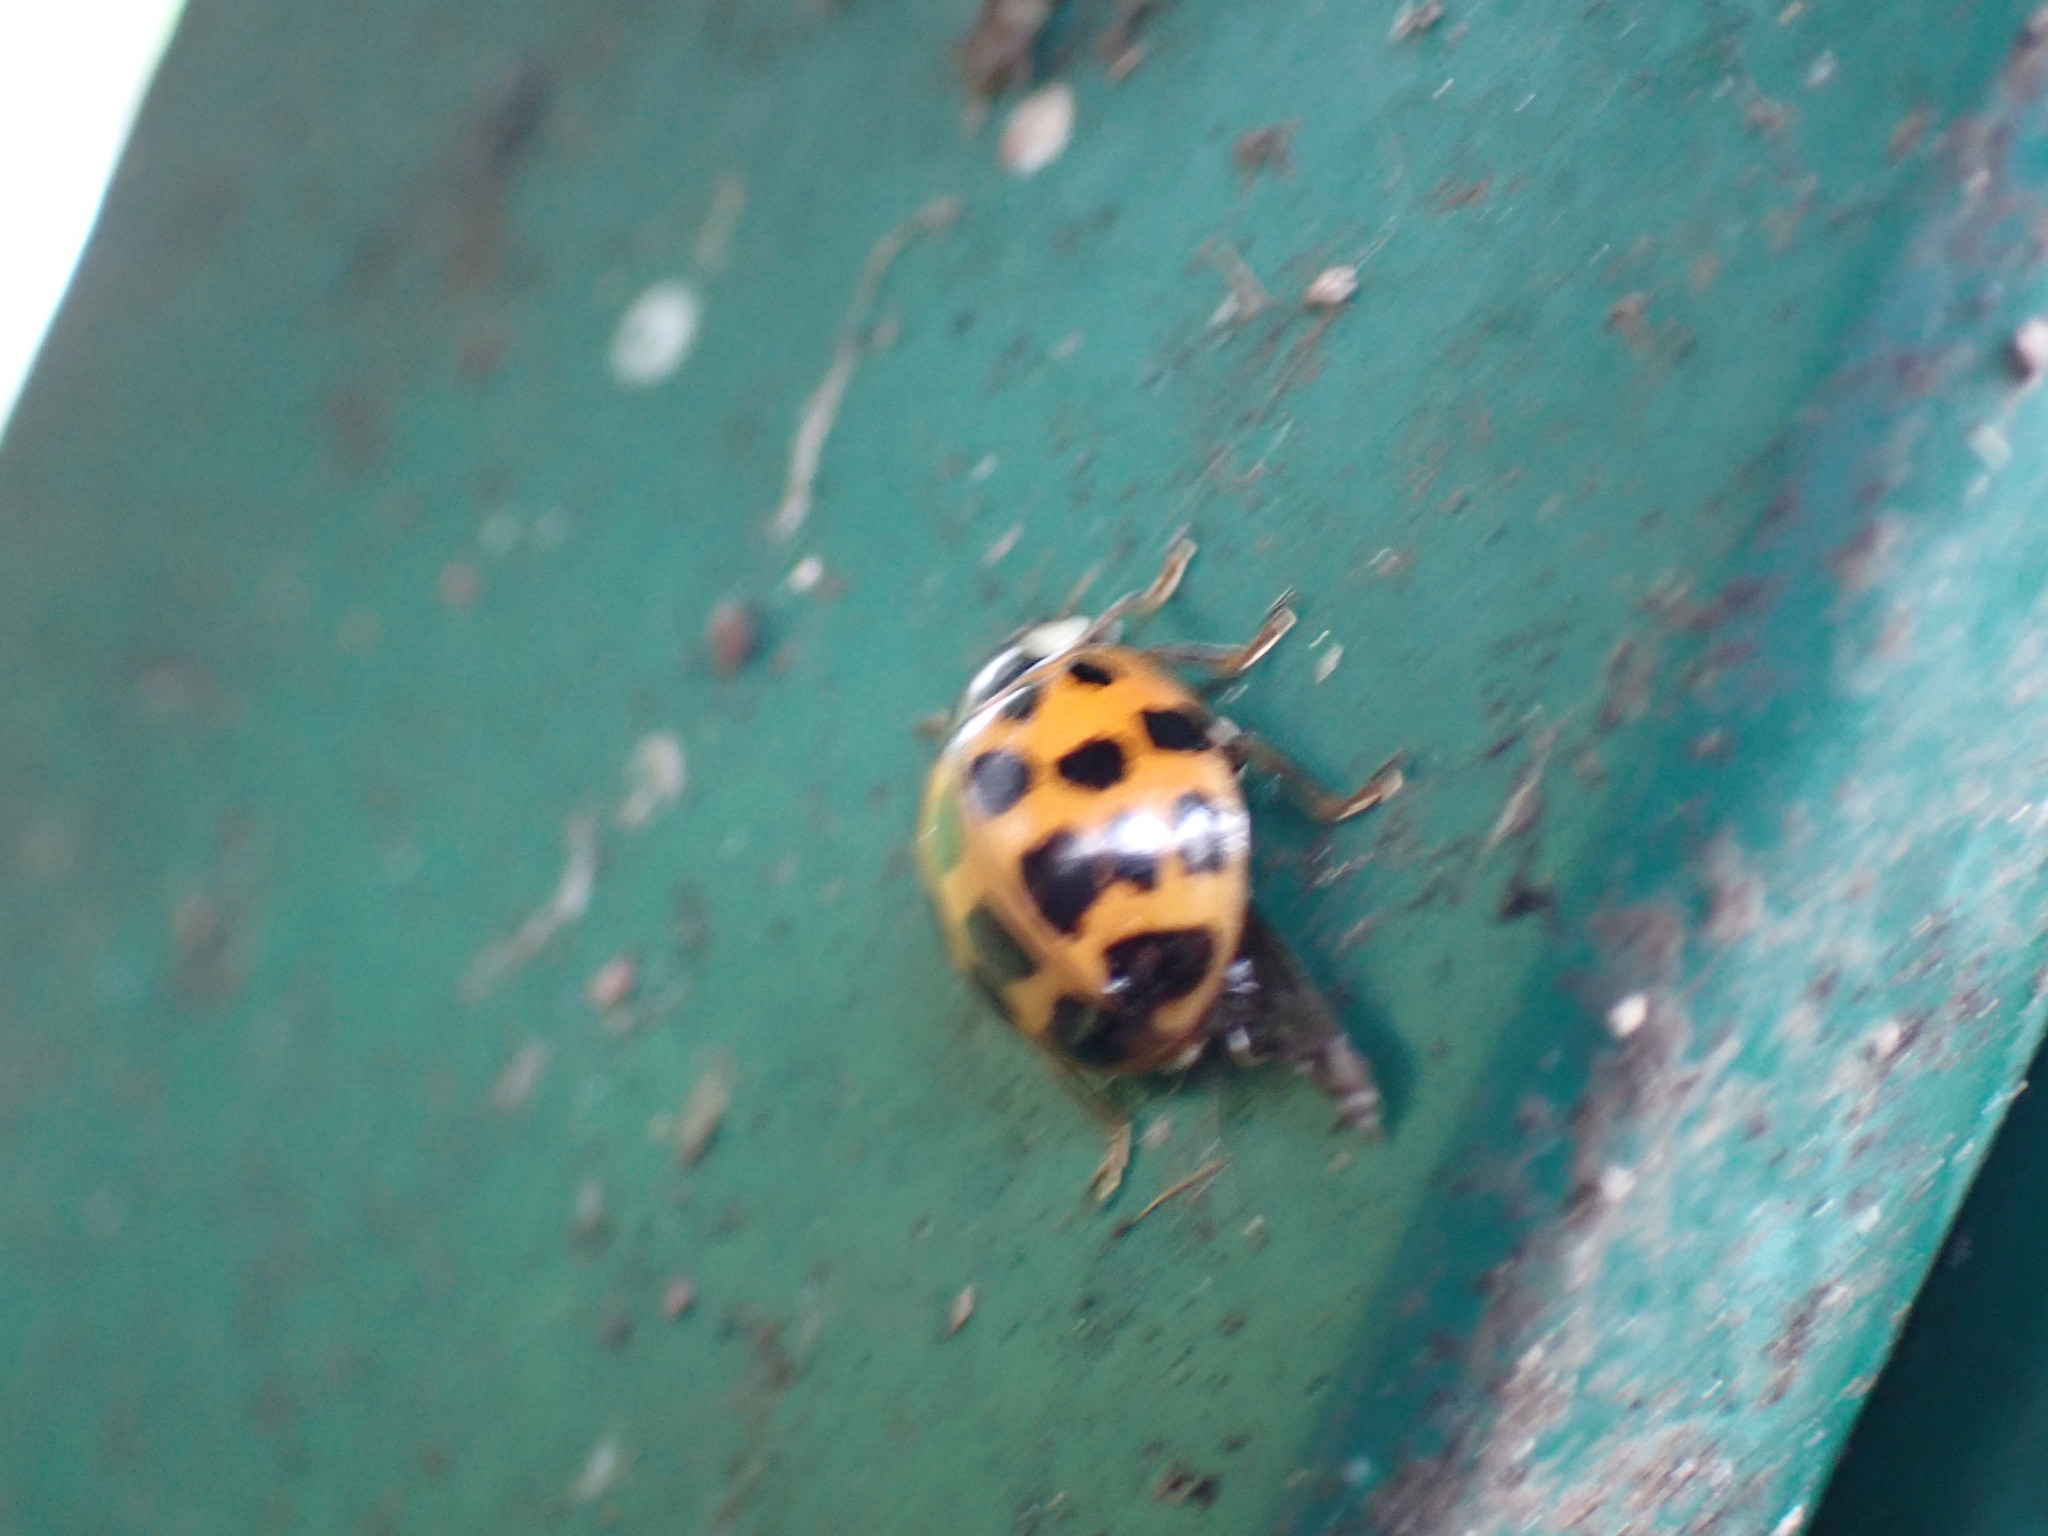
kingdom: Animalia
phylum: Arthropoda
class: Insecta
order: Coleoptera
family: Coccinellidae
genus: Harmonia
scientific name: Harmonia axyridis
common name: Harlequin ladybird
